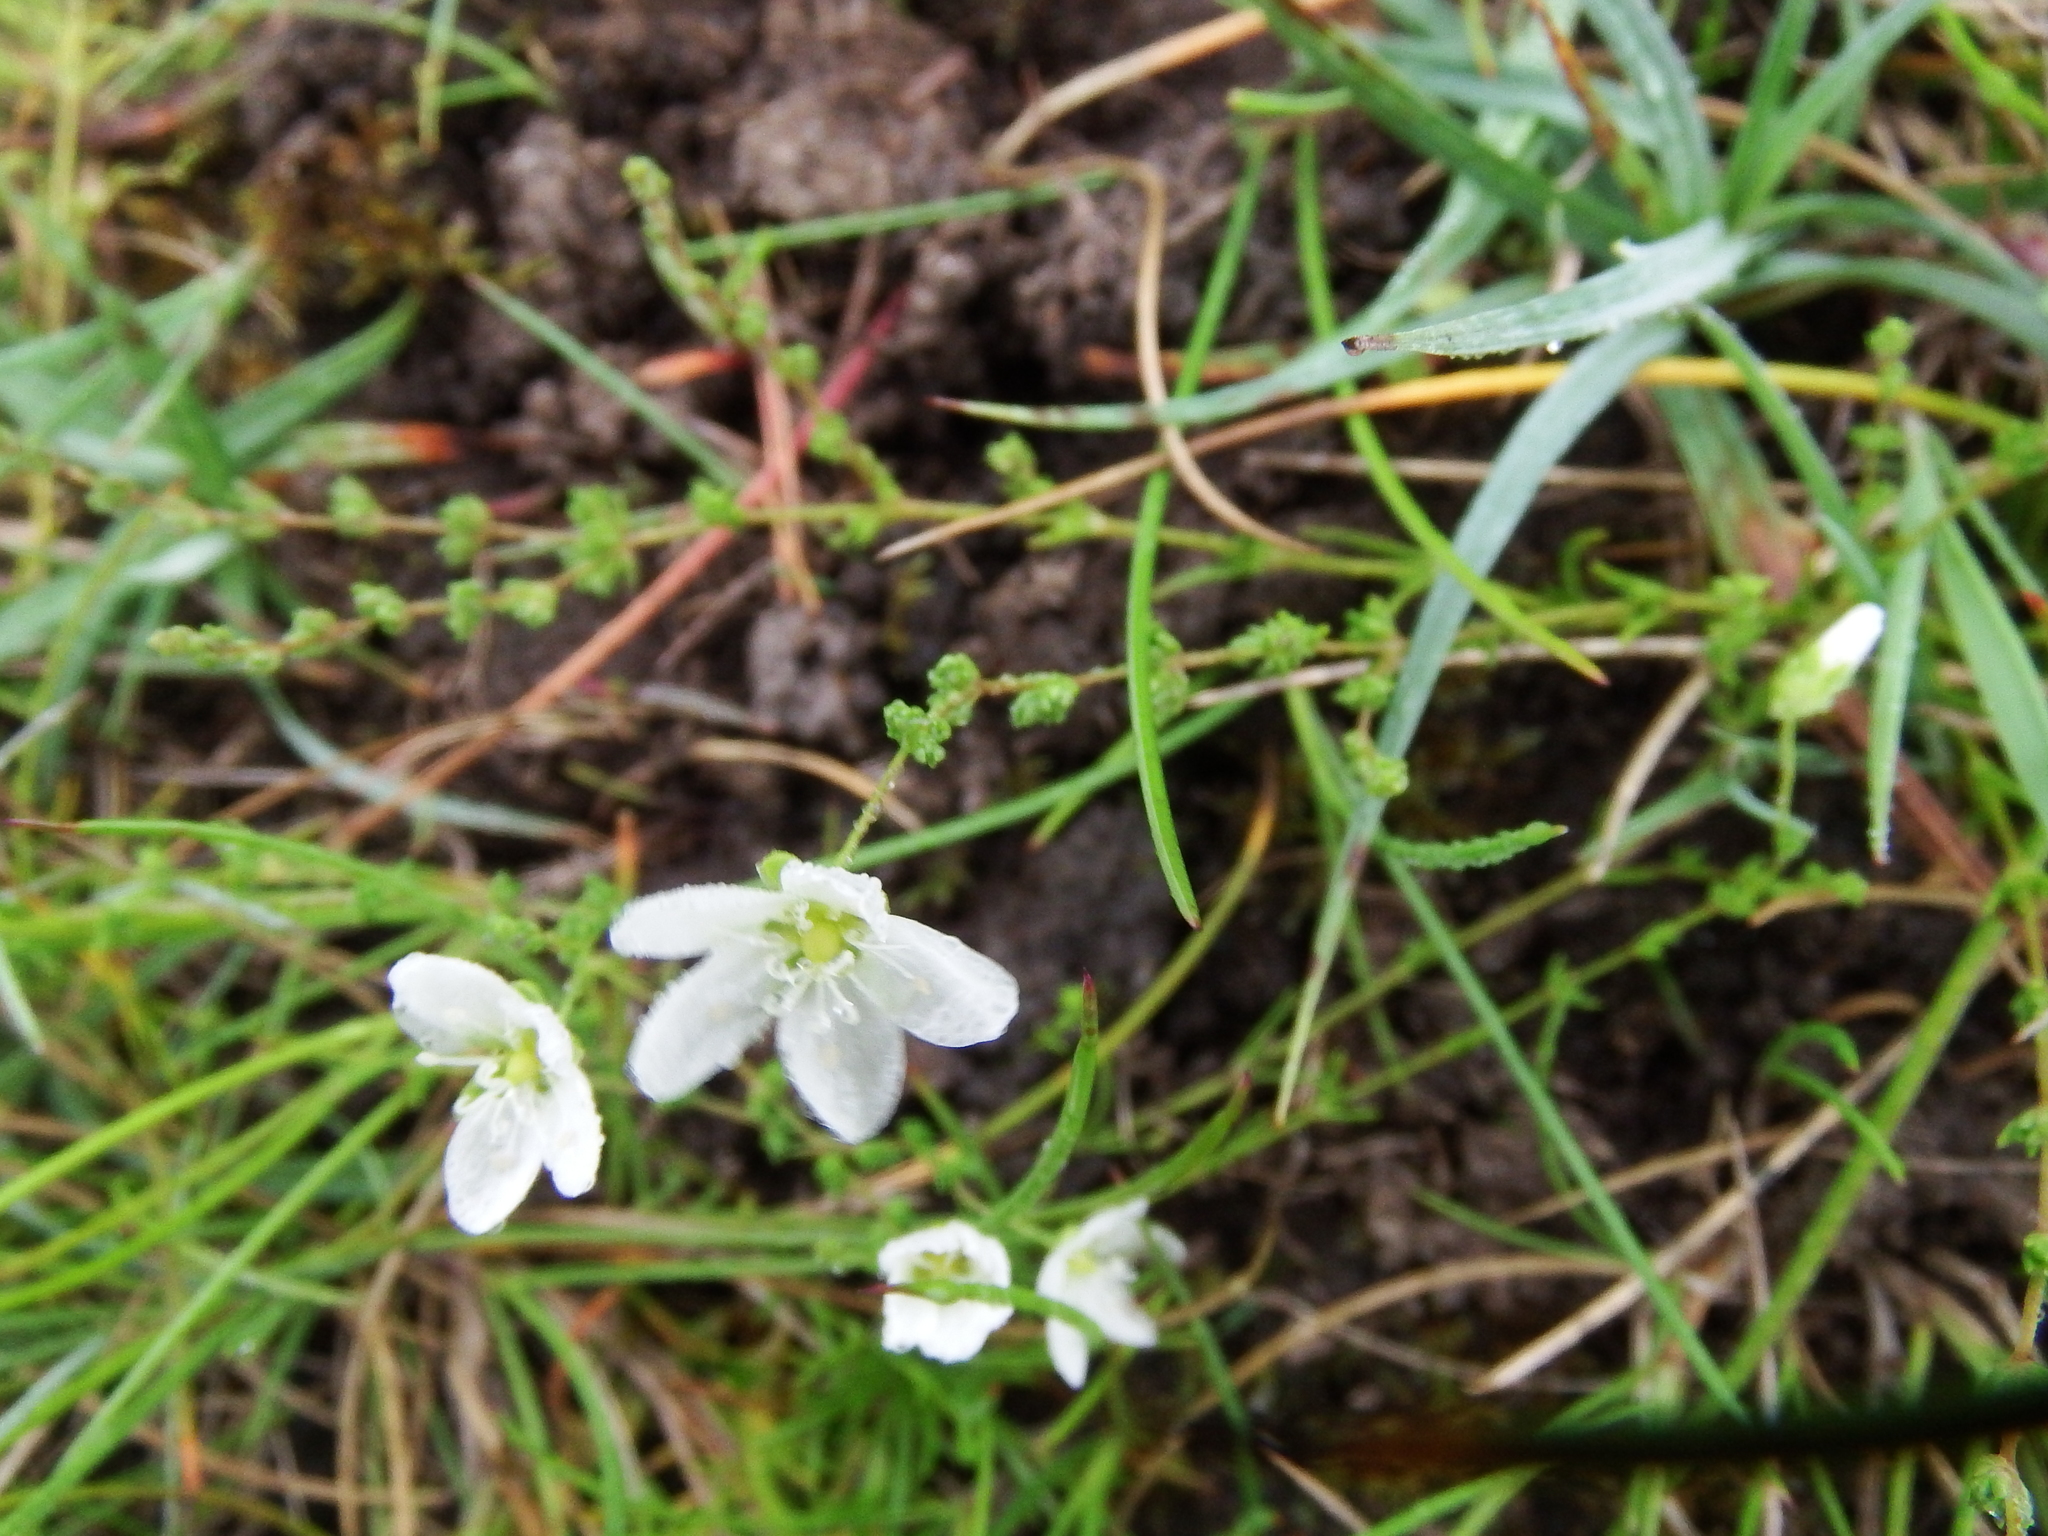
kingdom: Plantae
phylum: Tracheophyta
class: Magnoliopsida
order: Caryophyllales
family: Caryophyllaceae
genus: Sagina
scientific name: Sagina nodosa
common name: Knotted pearlwort
